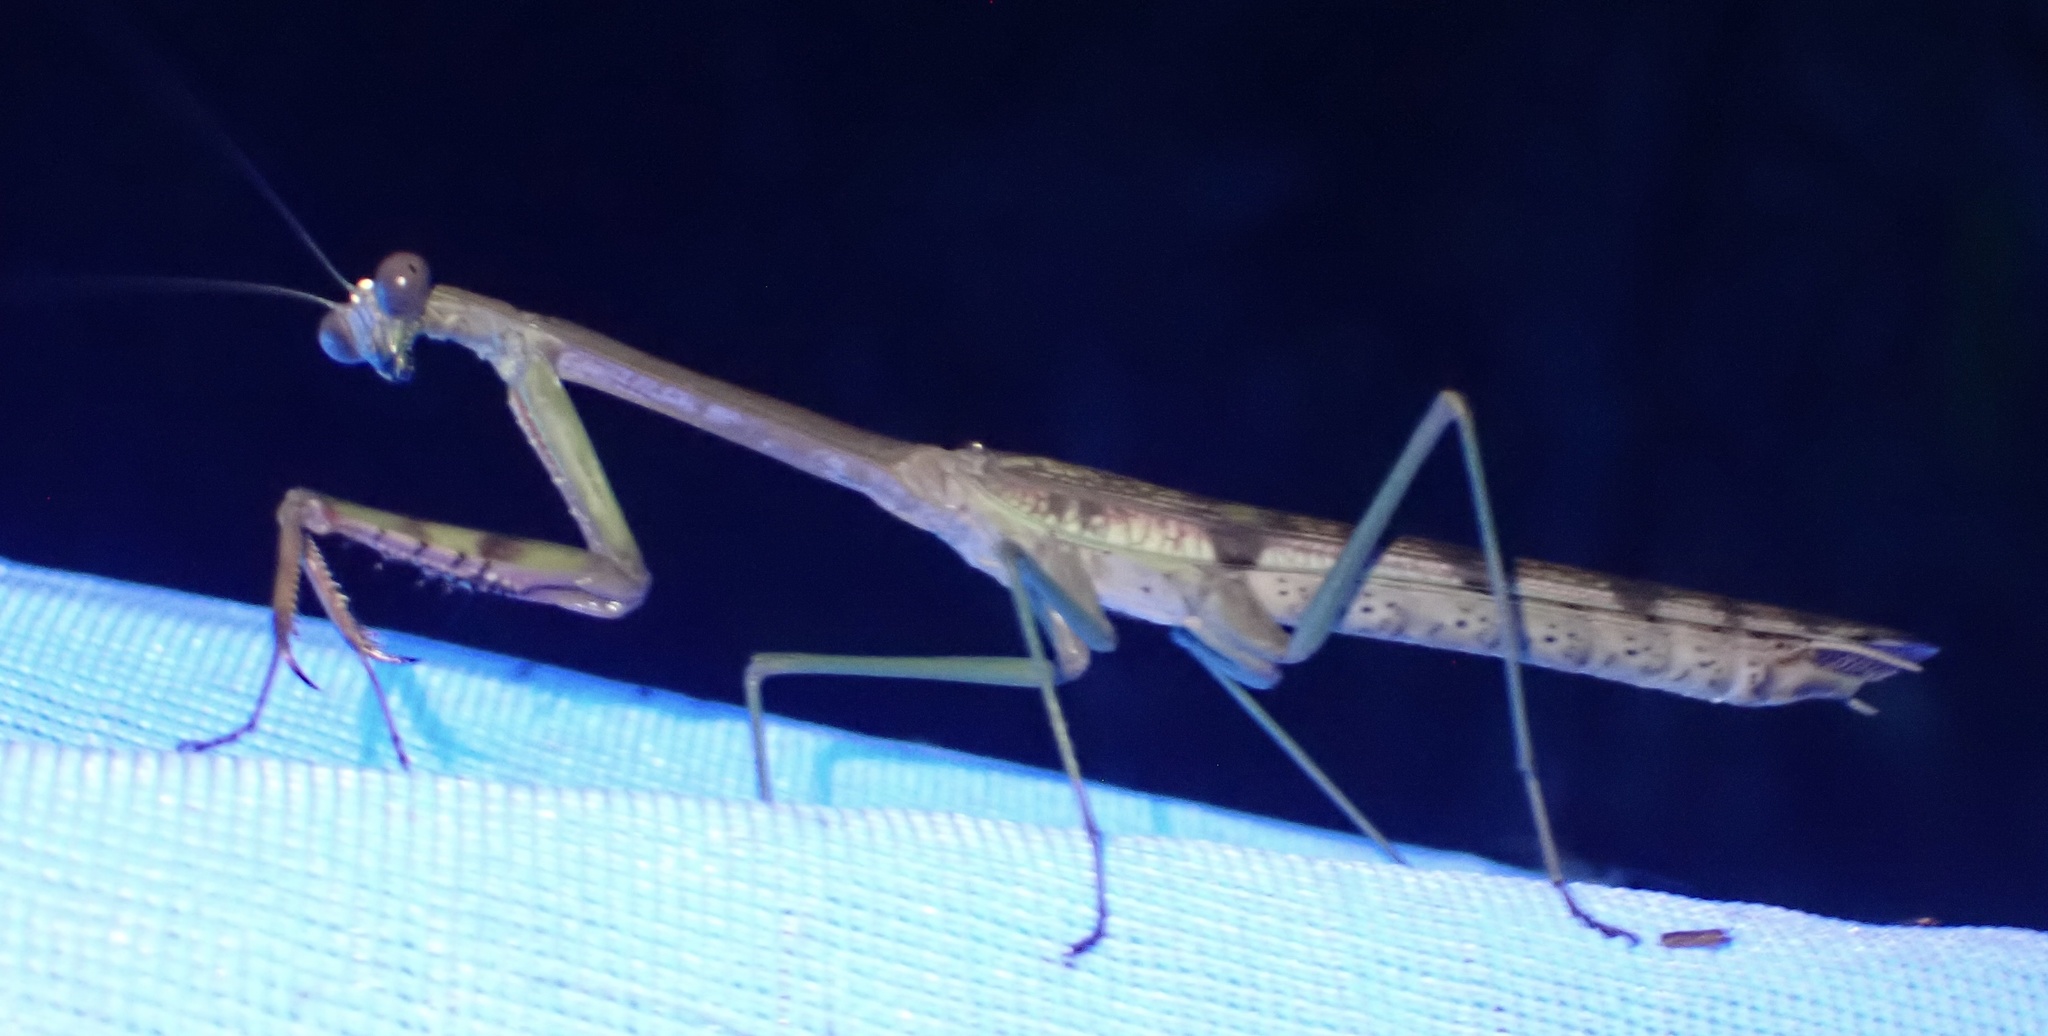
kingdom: Animalia
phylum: Arthropoda
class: Insecta
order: Mantodea
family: Mantidae
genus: Plistospilota
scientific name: Plistospilota guineensis
